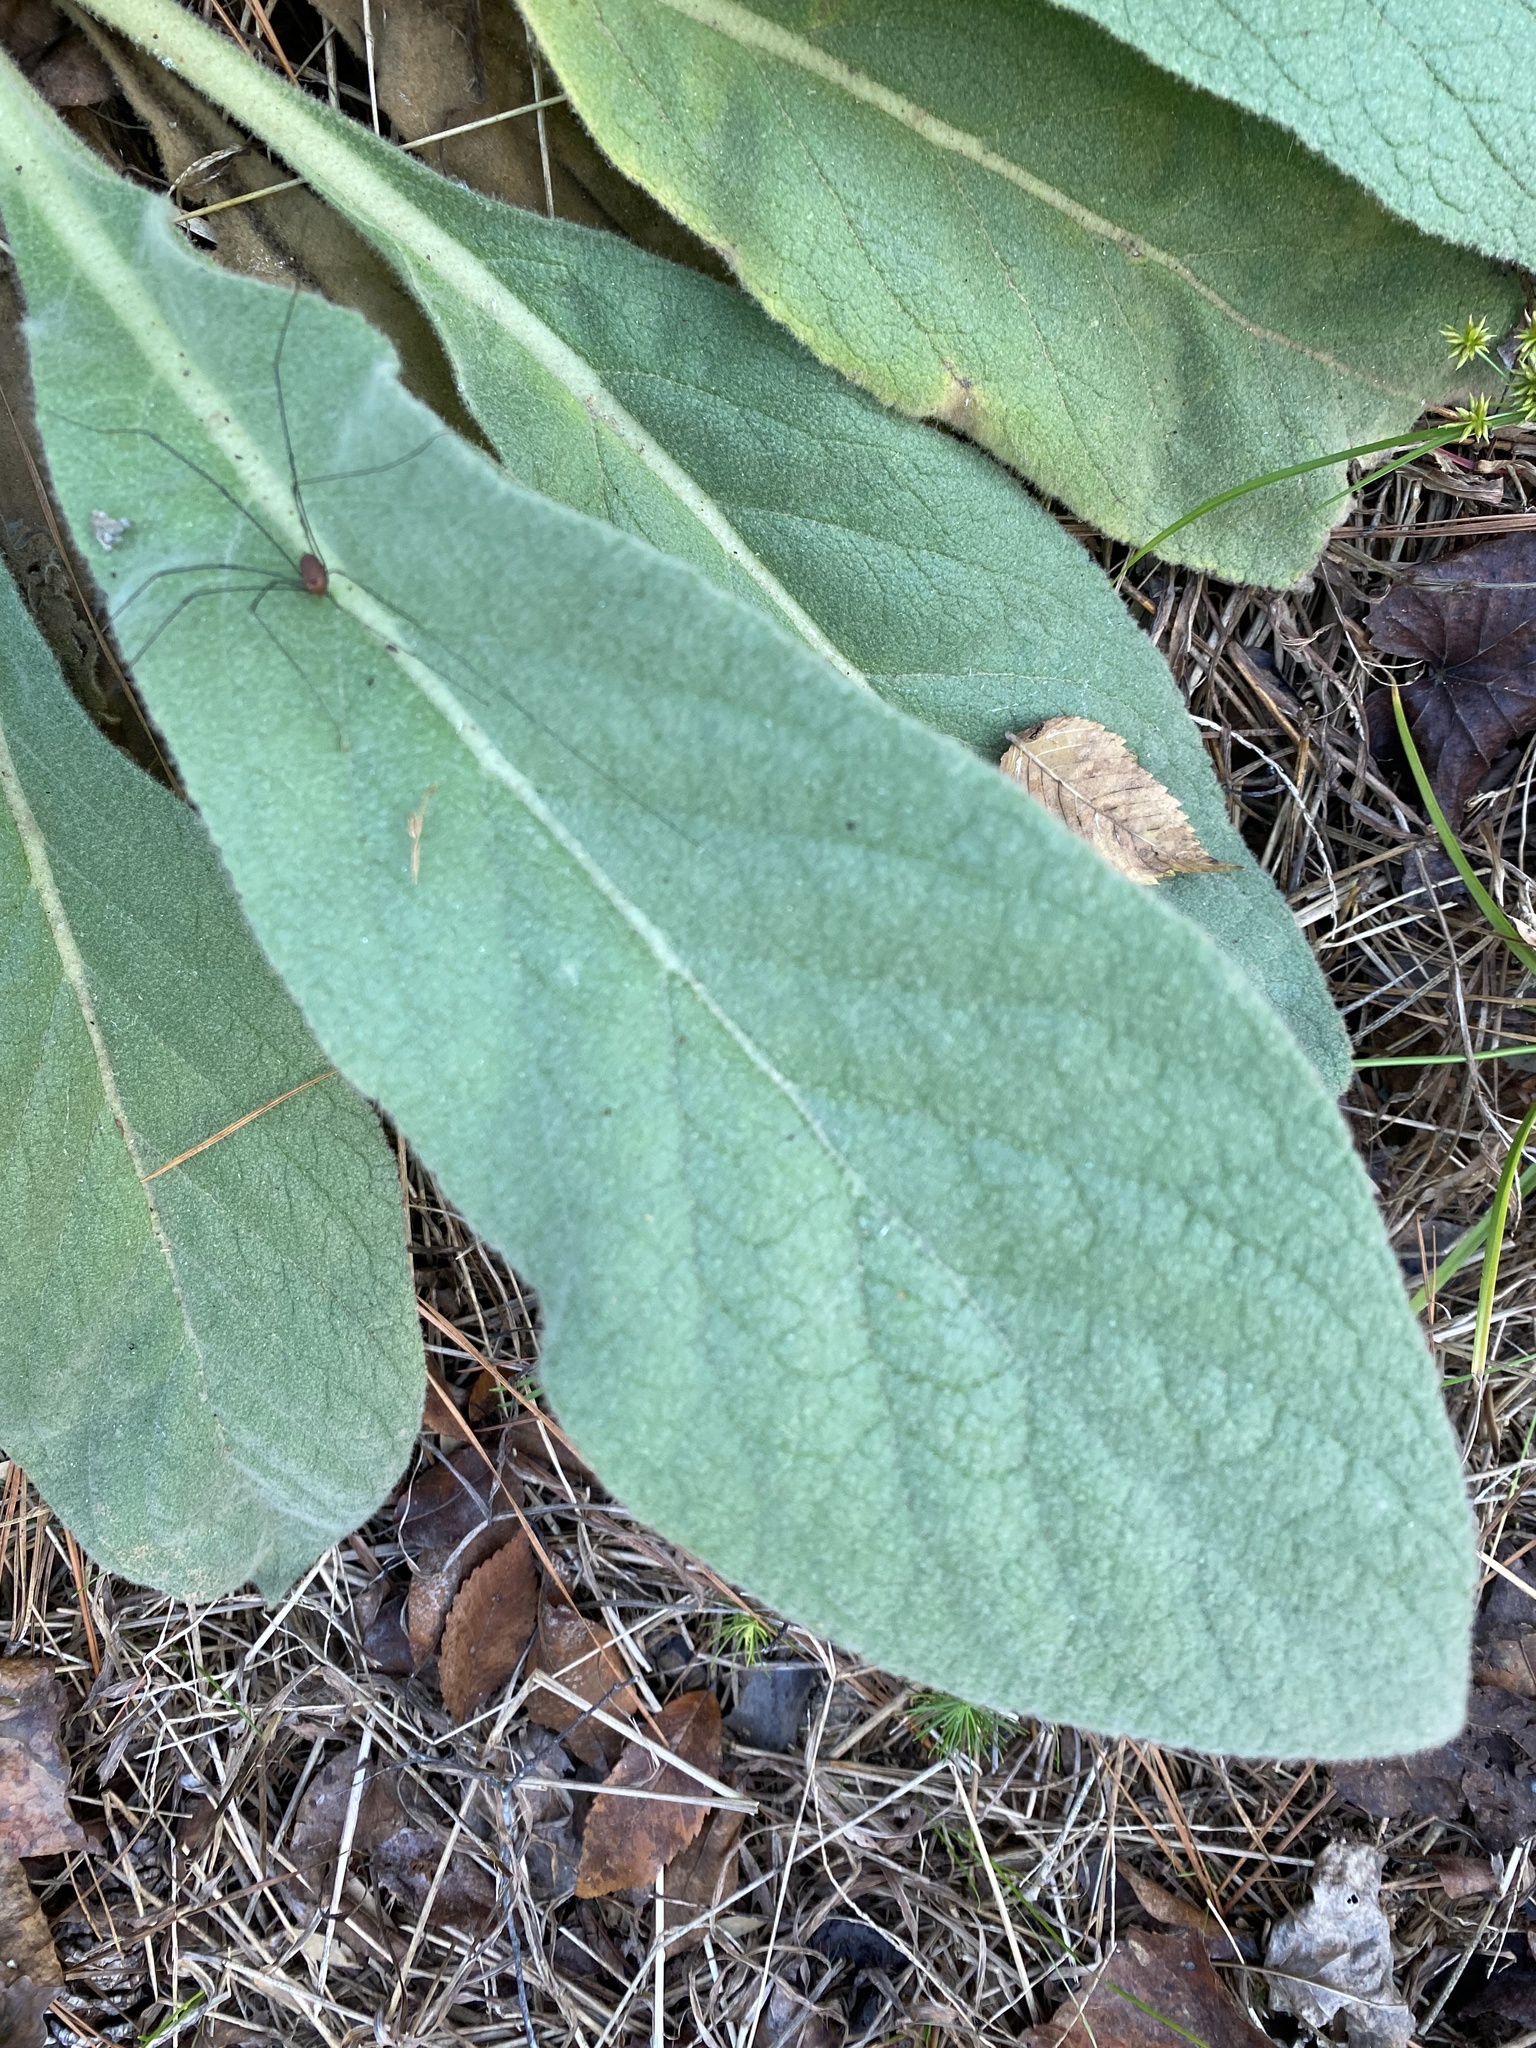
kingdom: Plantae
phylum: Tracheophyta
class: Magnoliopsida
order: Lamiales
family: Scrophulariaceae
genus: Verbascum
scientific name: Verbascum thapsus
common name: Common mullein
